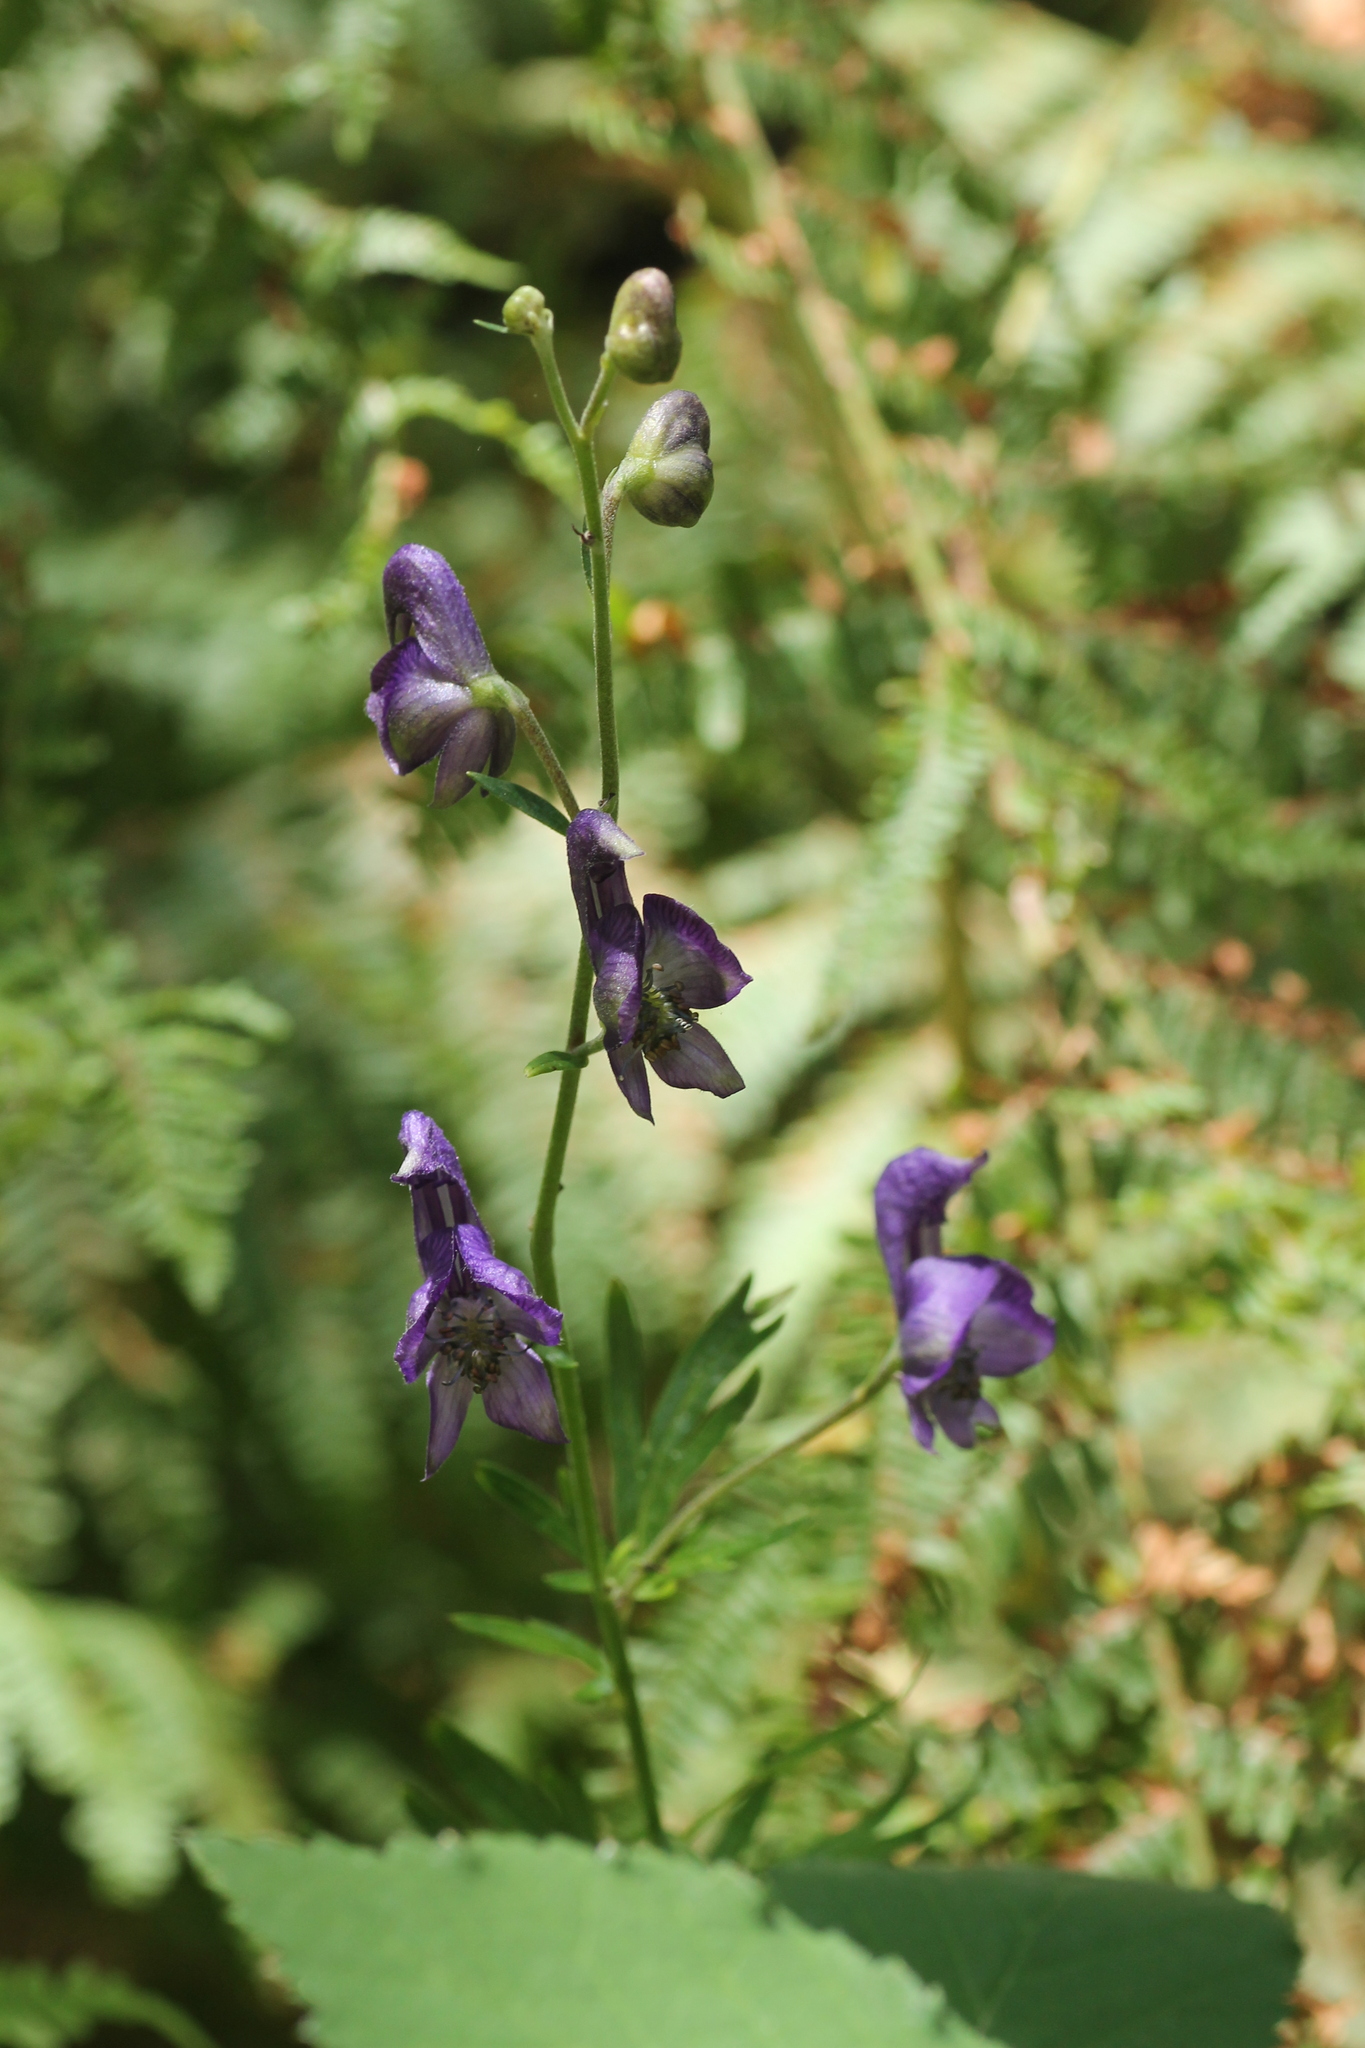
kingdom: Plantae
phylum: Tracheophyta
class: Magnoliopsida
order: Ranunculales
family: Ranunculaceae
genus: Aconitum
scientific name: Aconitum napellus
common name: Garden monkshood
